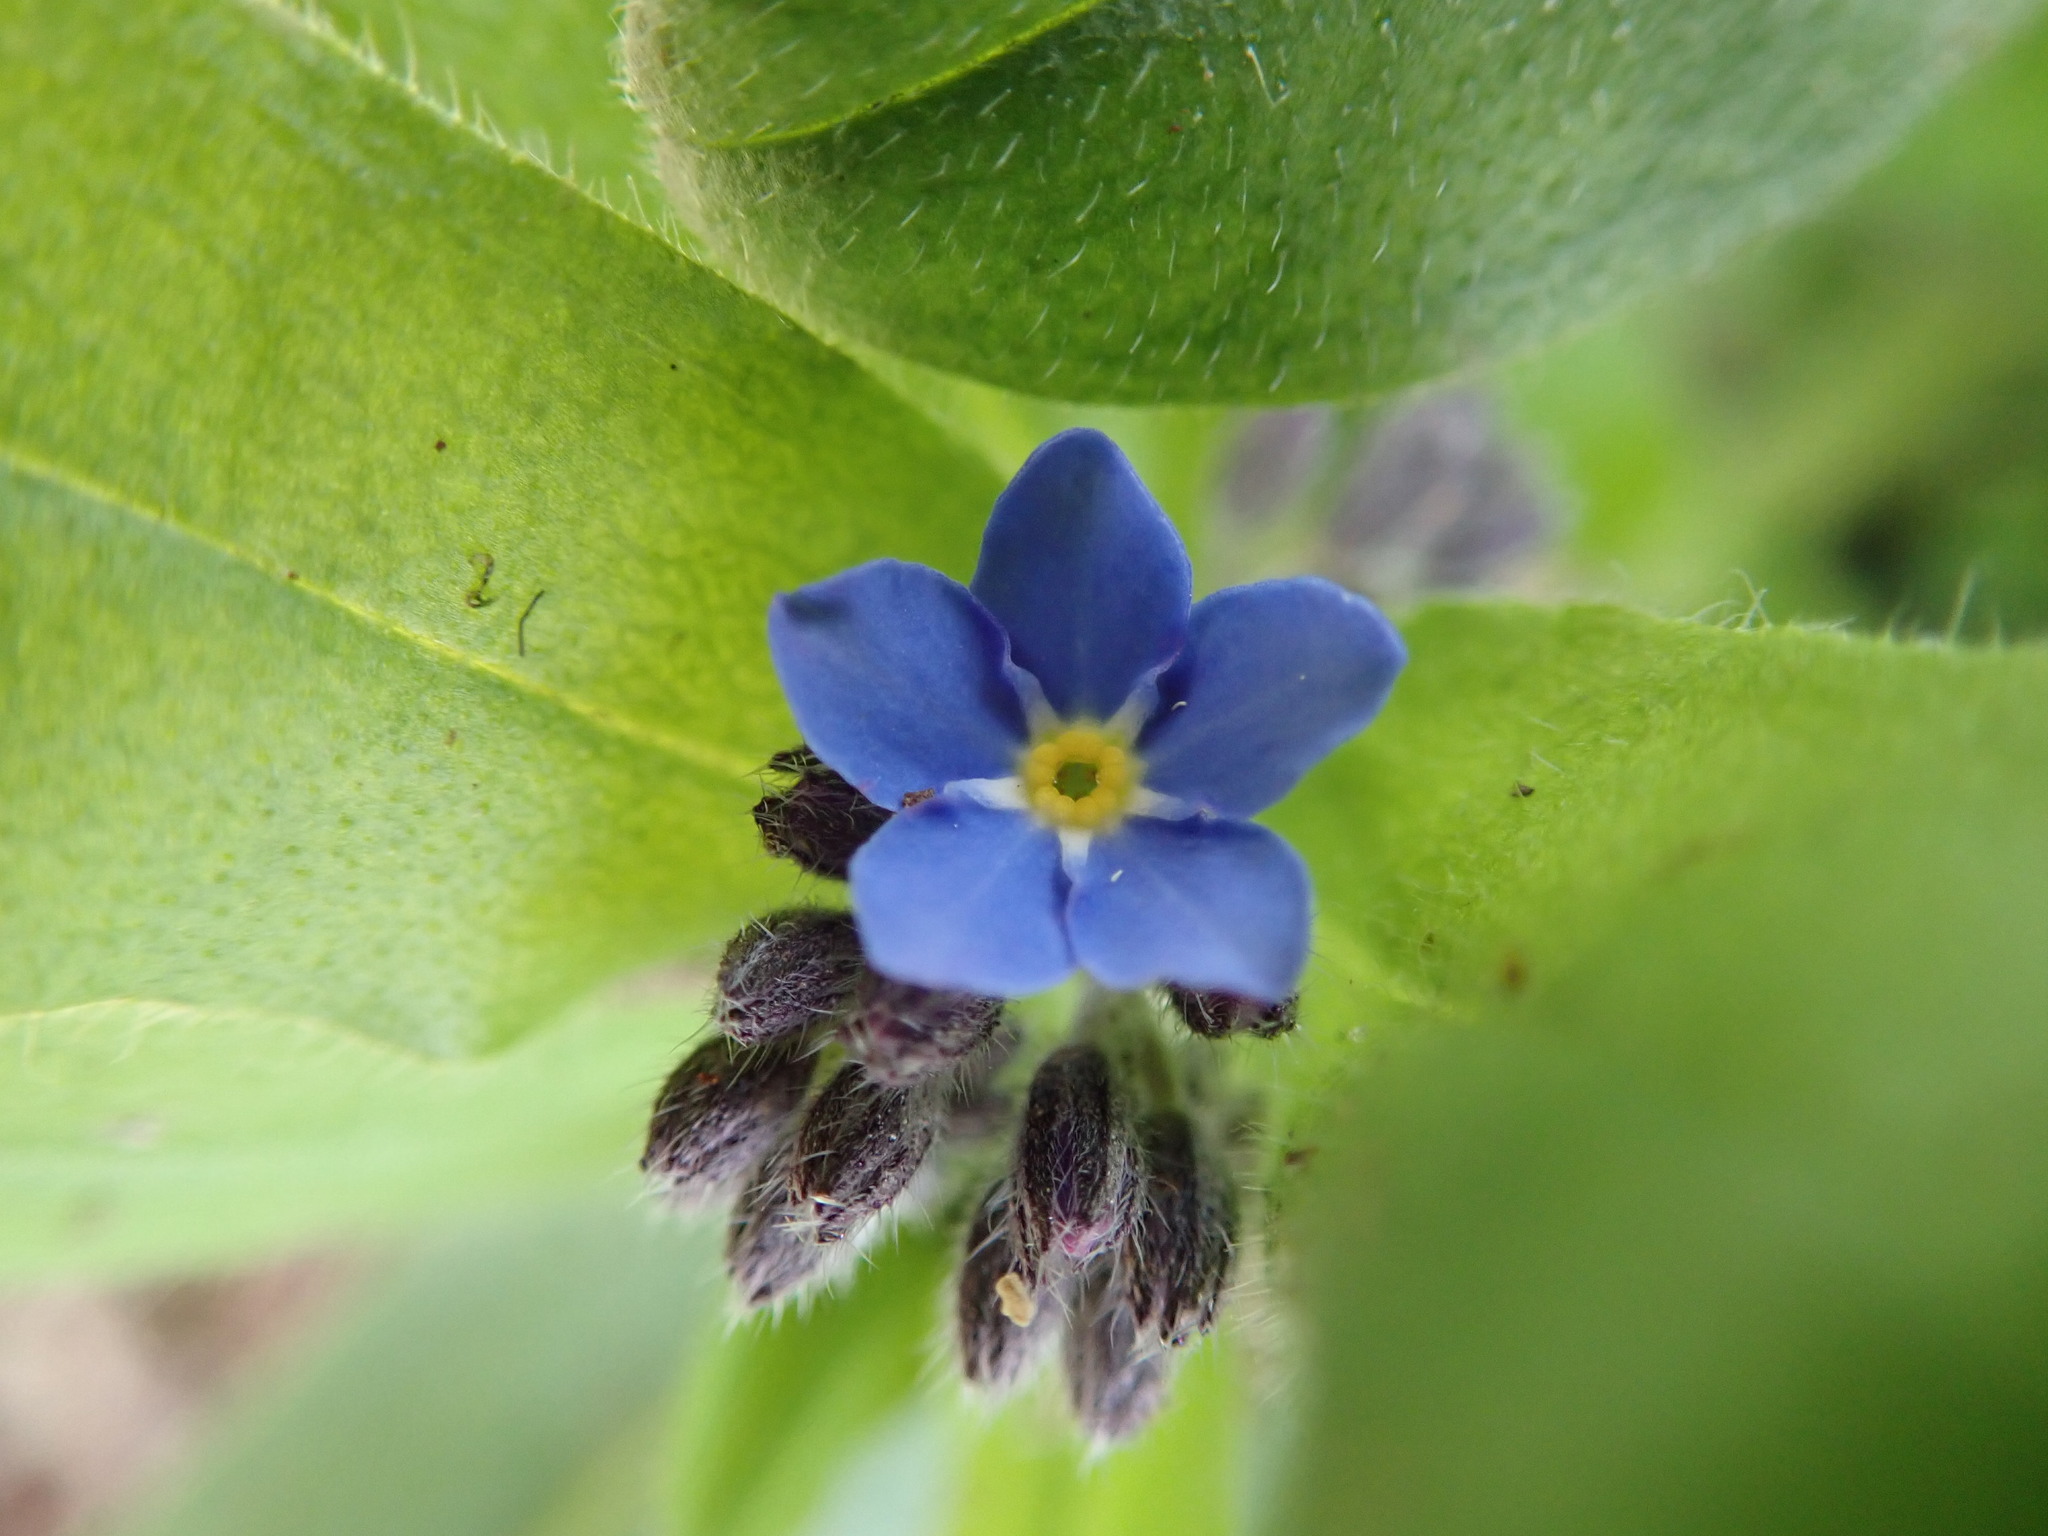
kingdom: Plantae
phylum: Tracheophyta
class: Magnoliopsida
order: Boraginales
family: Boraginaceae
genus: Myosotis
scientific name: Myosotis sylvatica
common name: Wood forget-me-not
